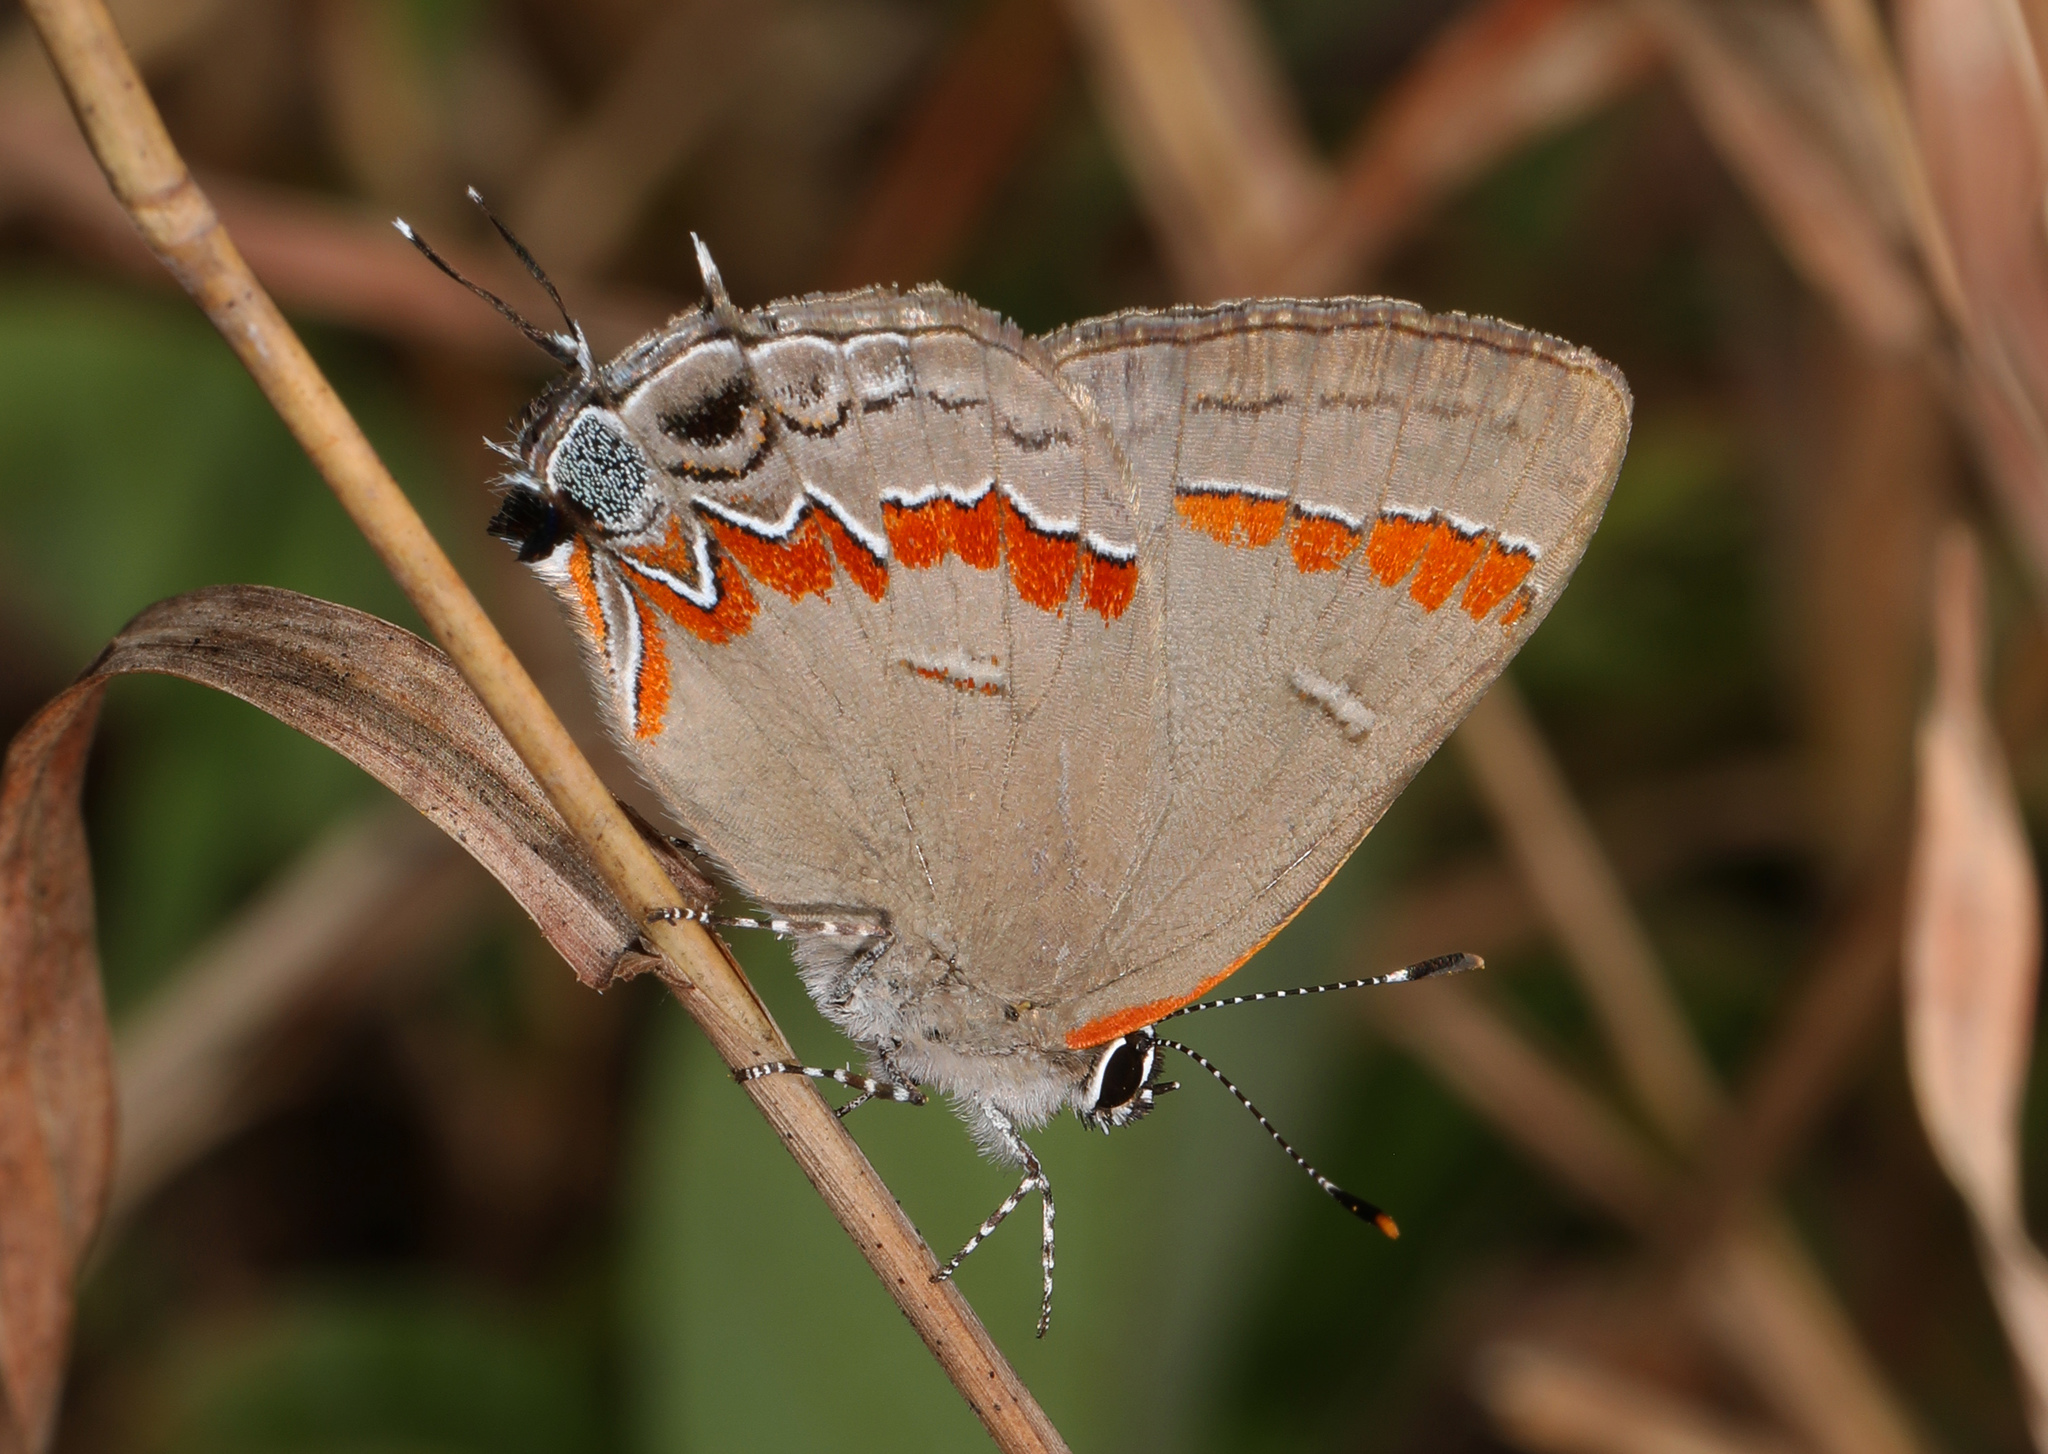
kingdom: Animalia
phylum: Arthropoda
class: Insecta
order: Lepidoptera
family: Lycaenidae
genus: Calycopis
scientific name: Calycopis cecrops
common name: Red-banded hairstreak
